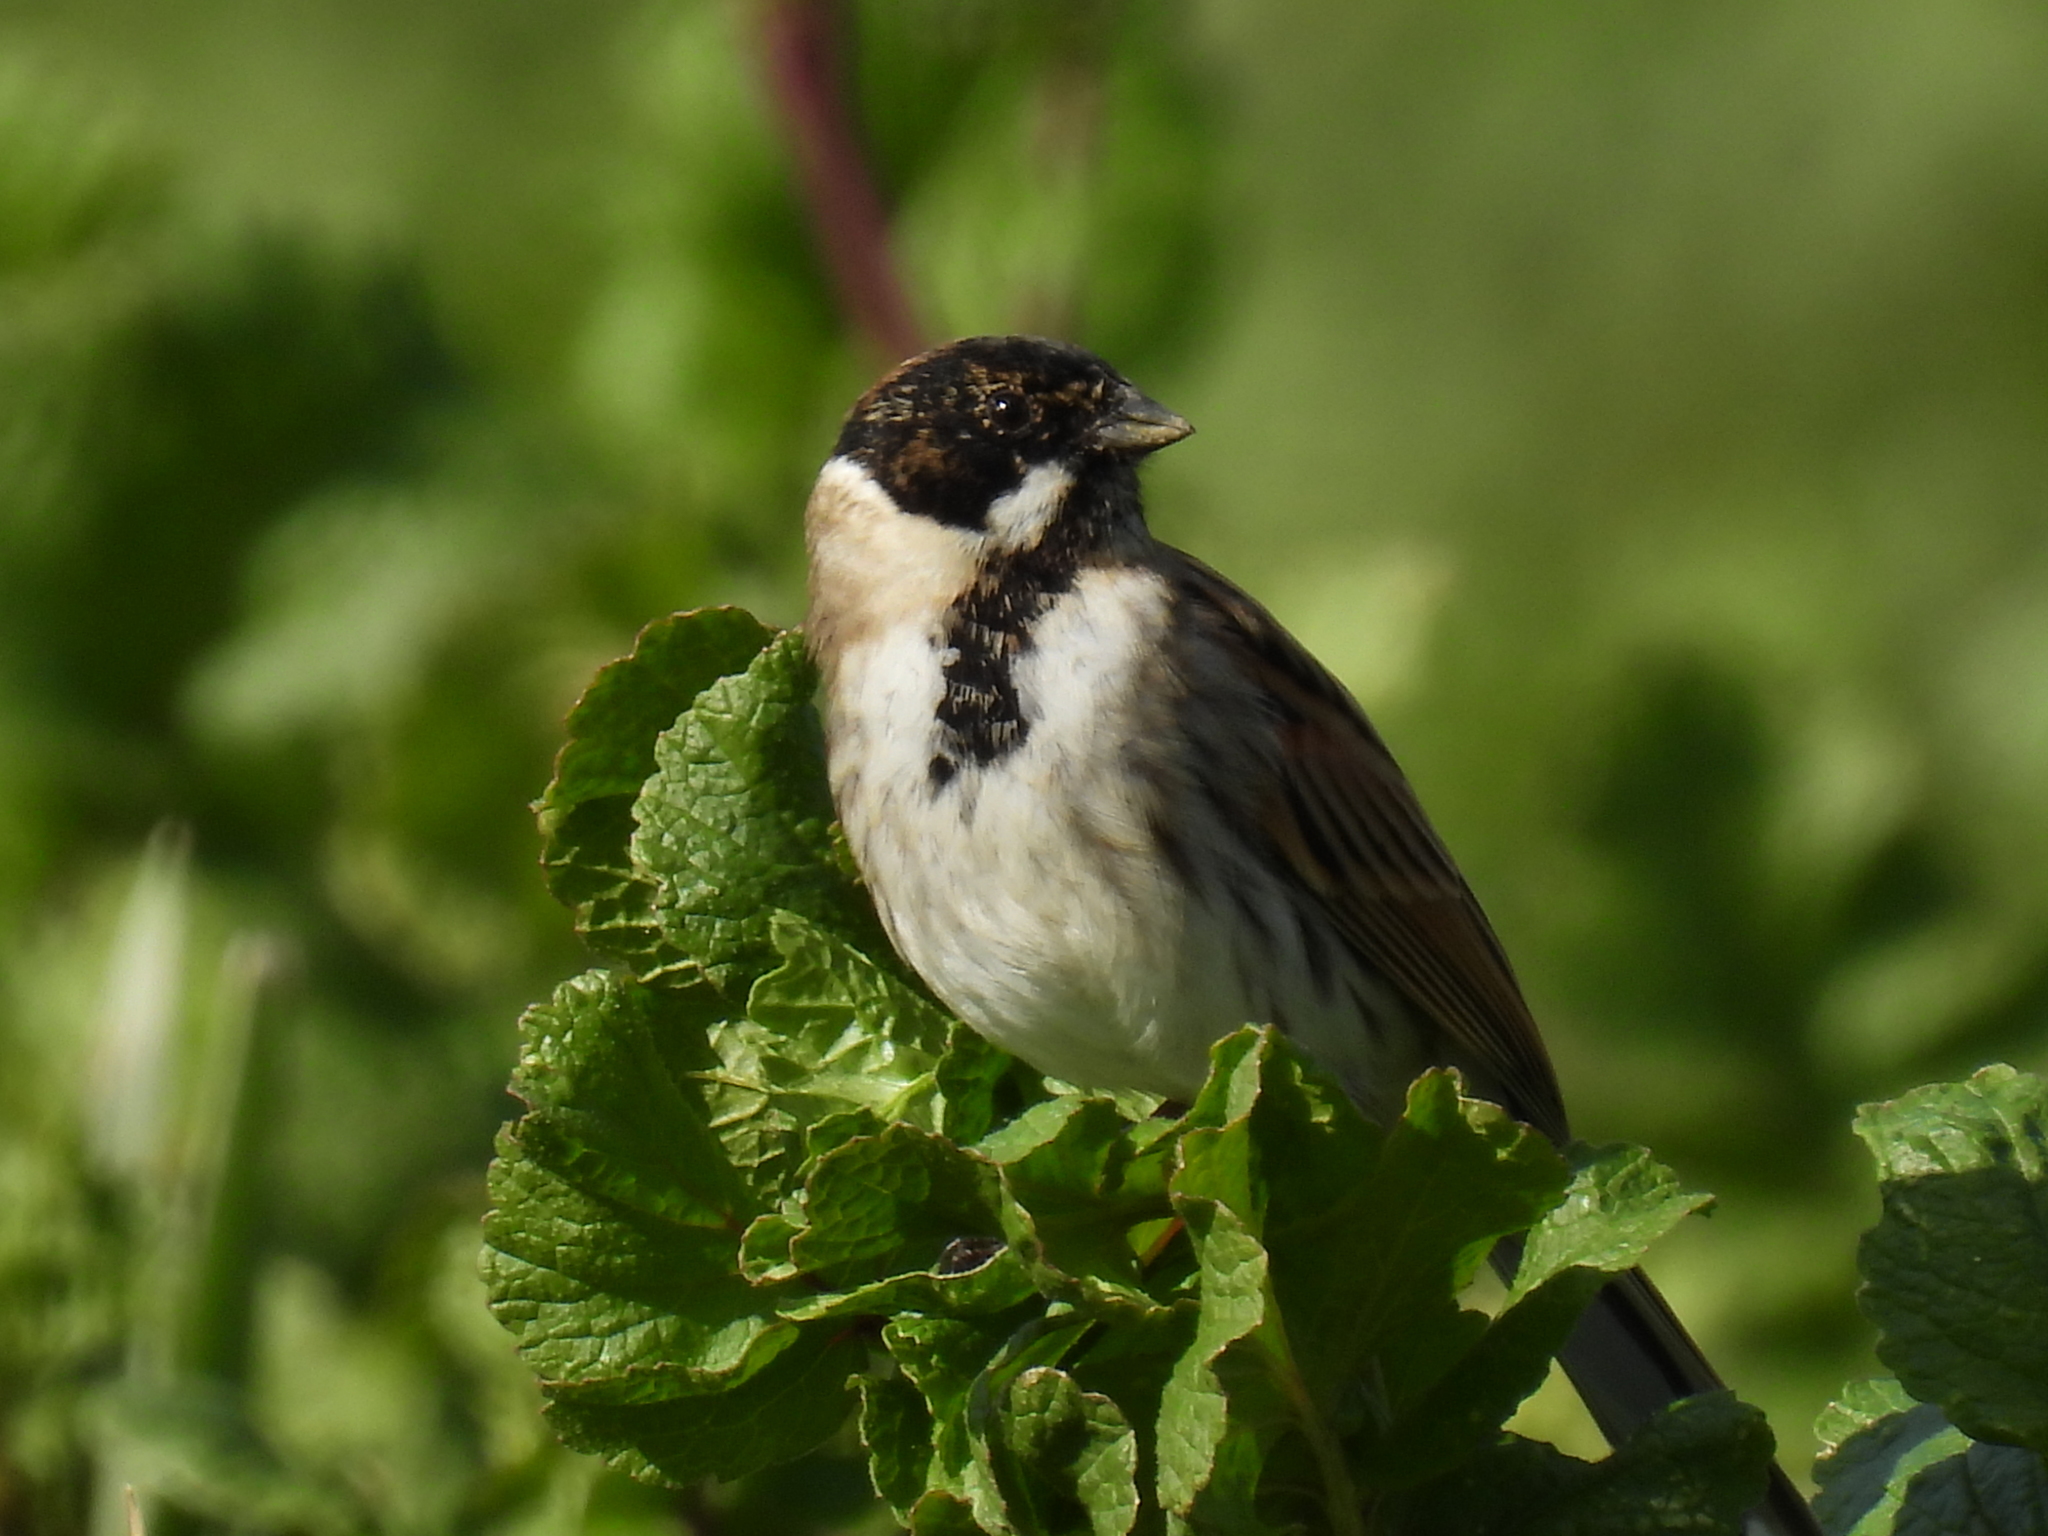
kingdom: Animalia
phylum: Chordata
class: Aves
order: Passeriformes
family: Emberizidae
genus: Emberiza
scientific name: Emberiza schoeniclus
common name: Reed bunting
